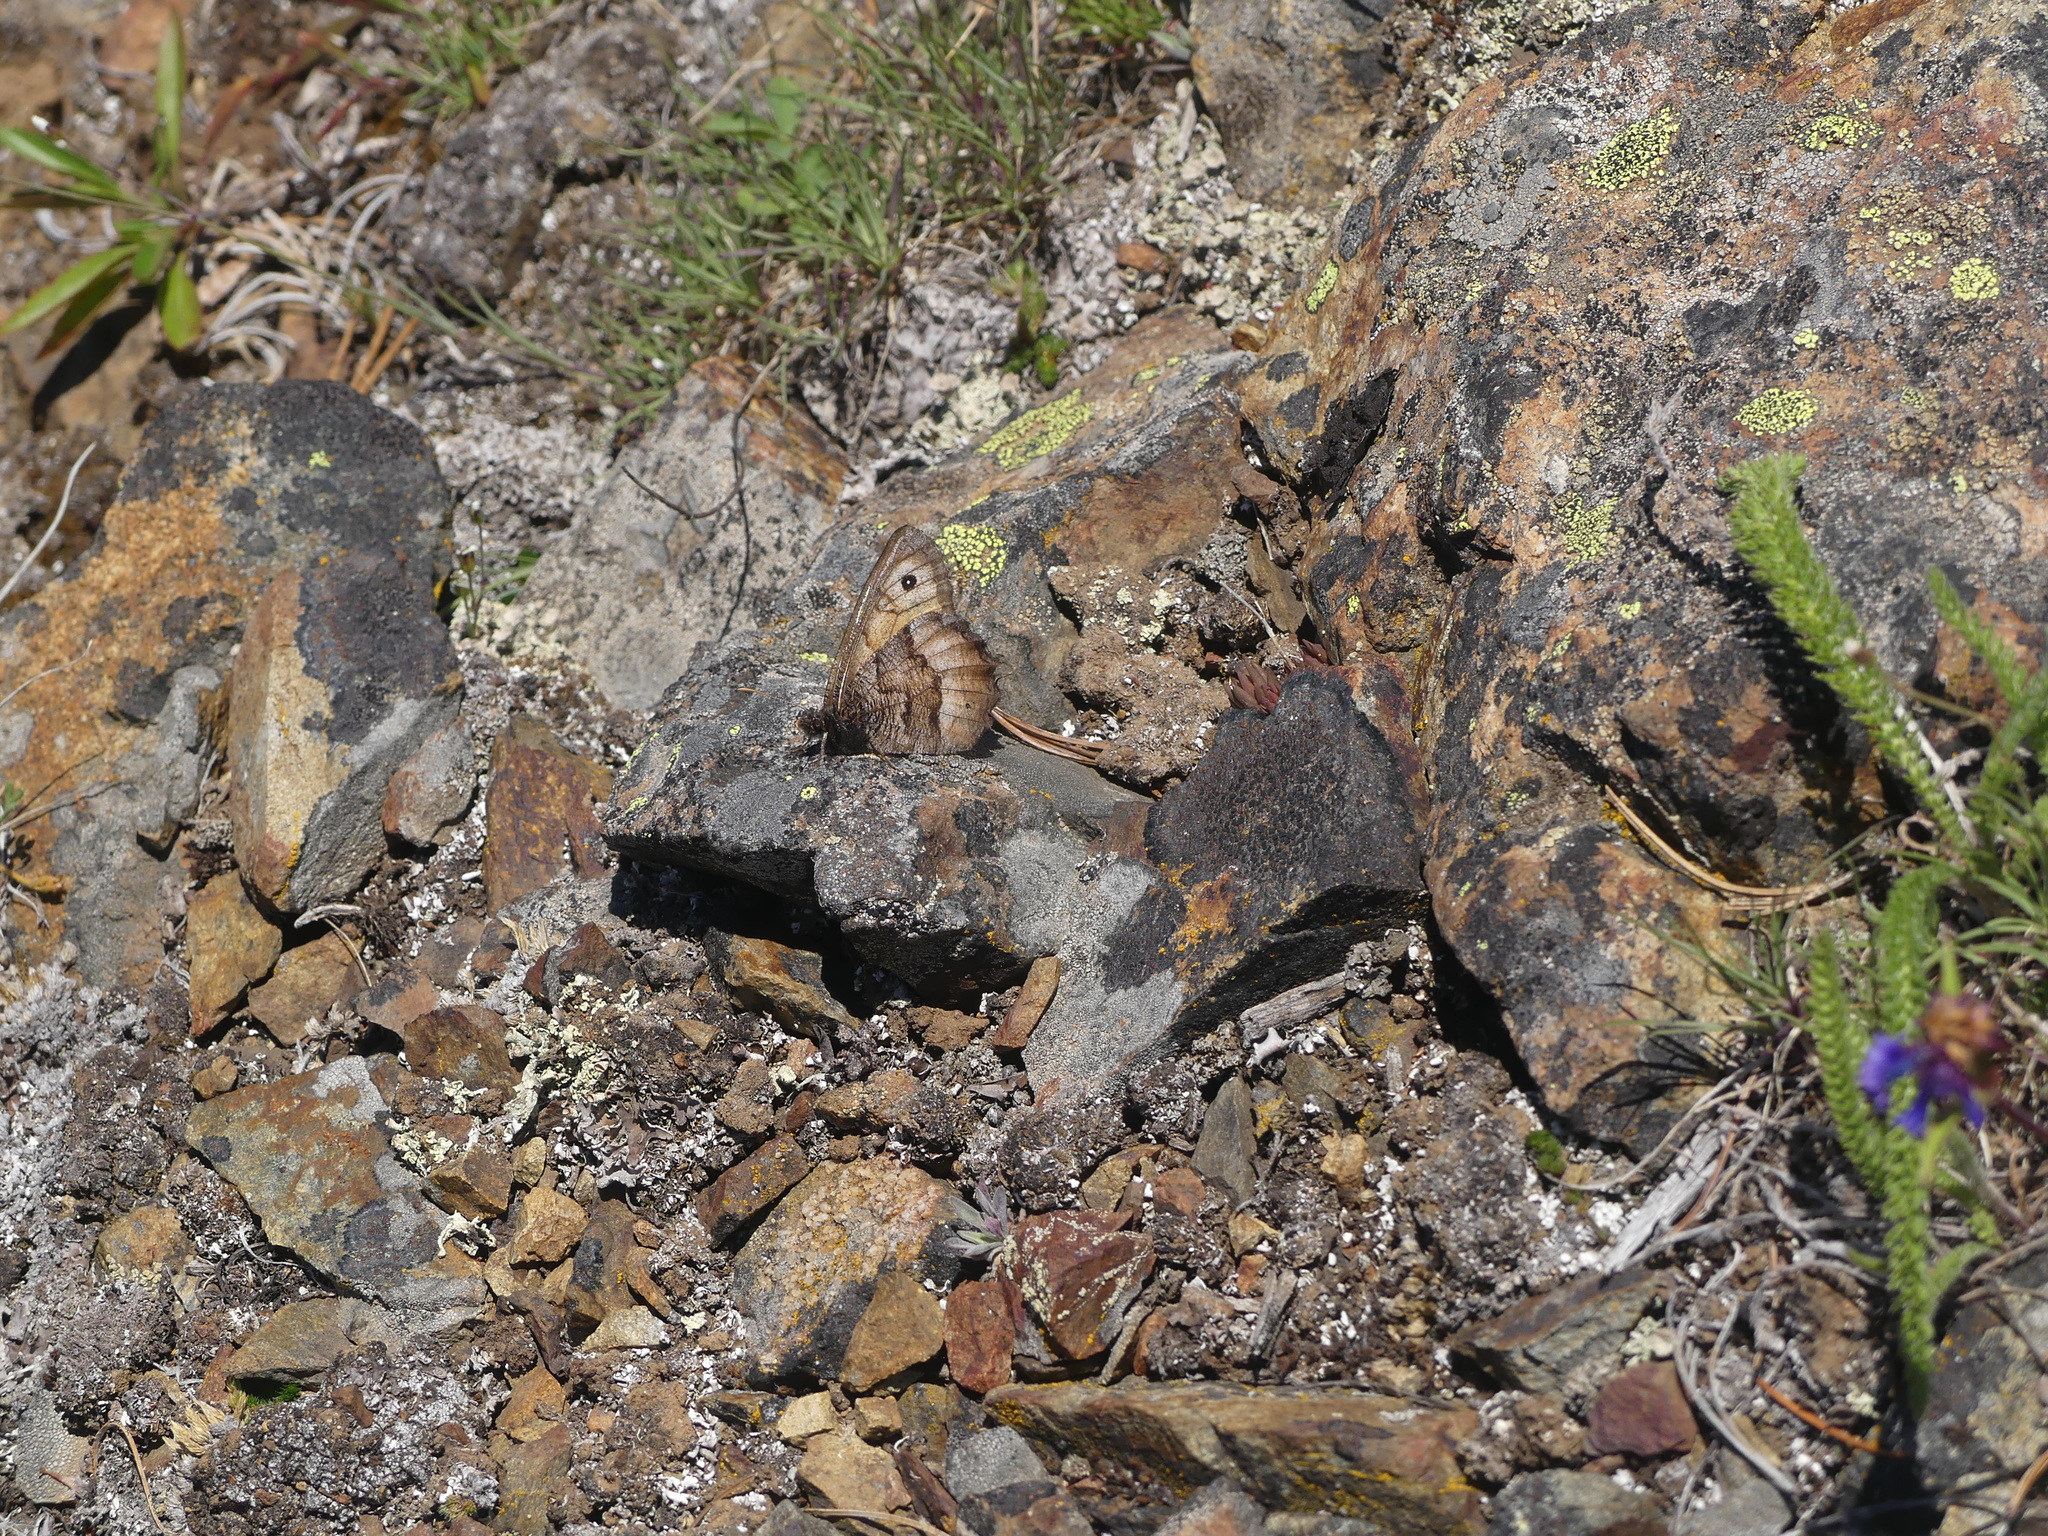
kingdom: Animalia
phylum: Arthropoda
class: Insecta
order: Lepidoptera
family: Nymphalidae
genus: Oeneis
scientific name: Oeneis macounii
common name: Macoun's arctic
